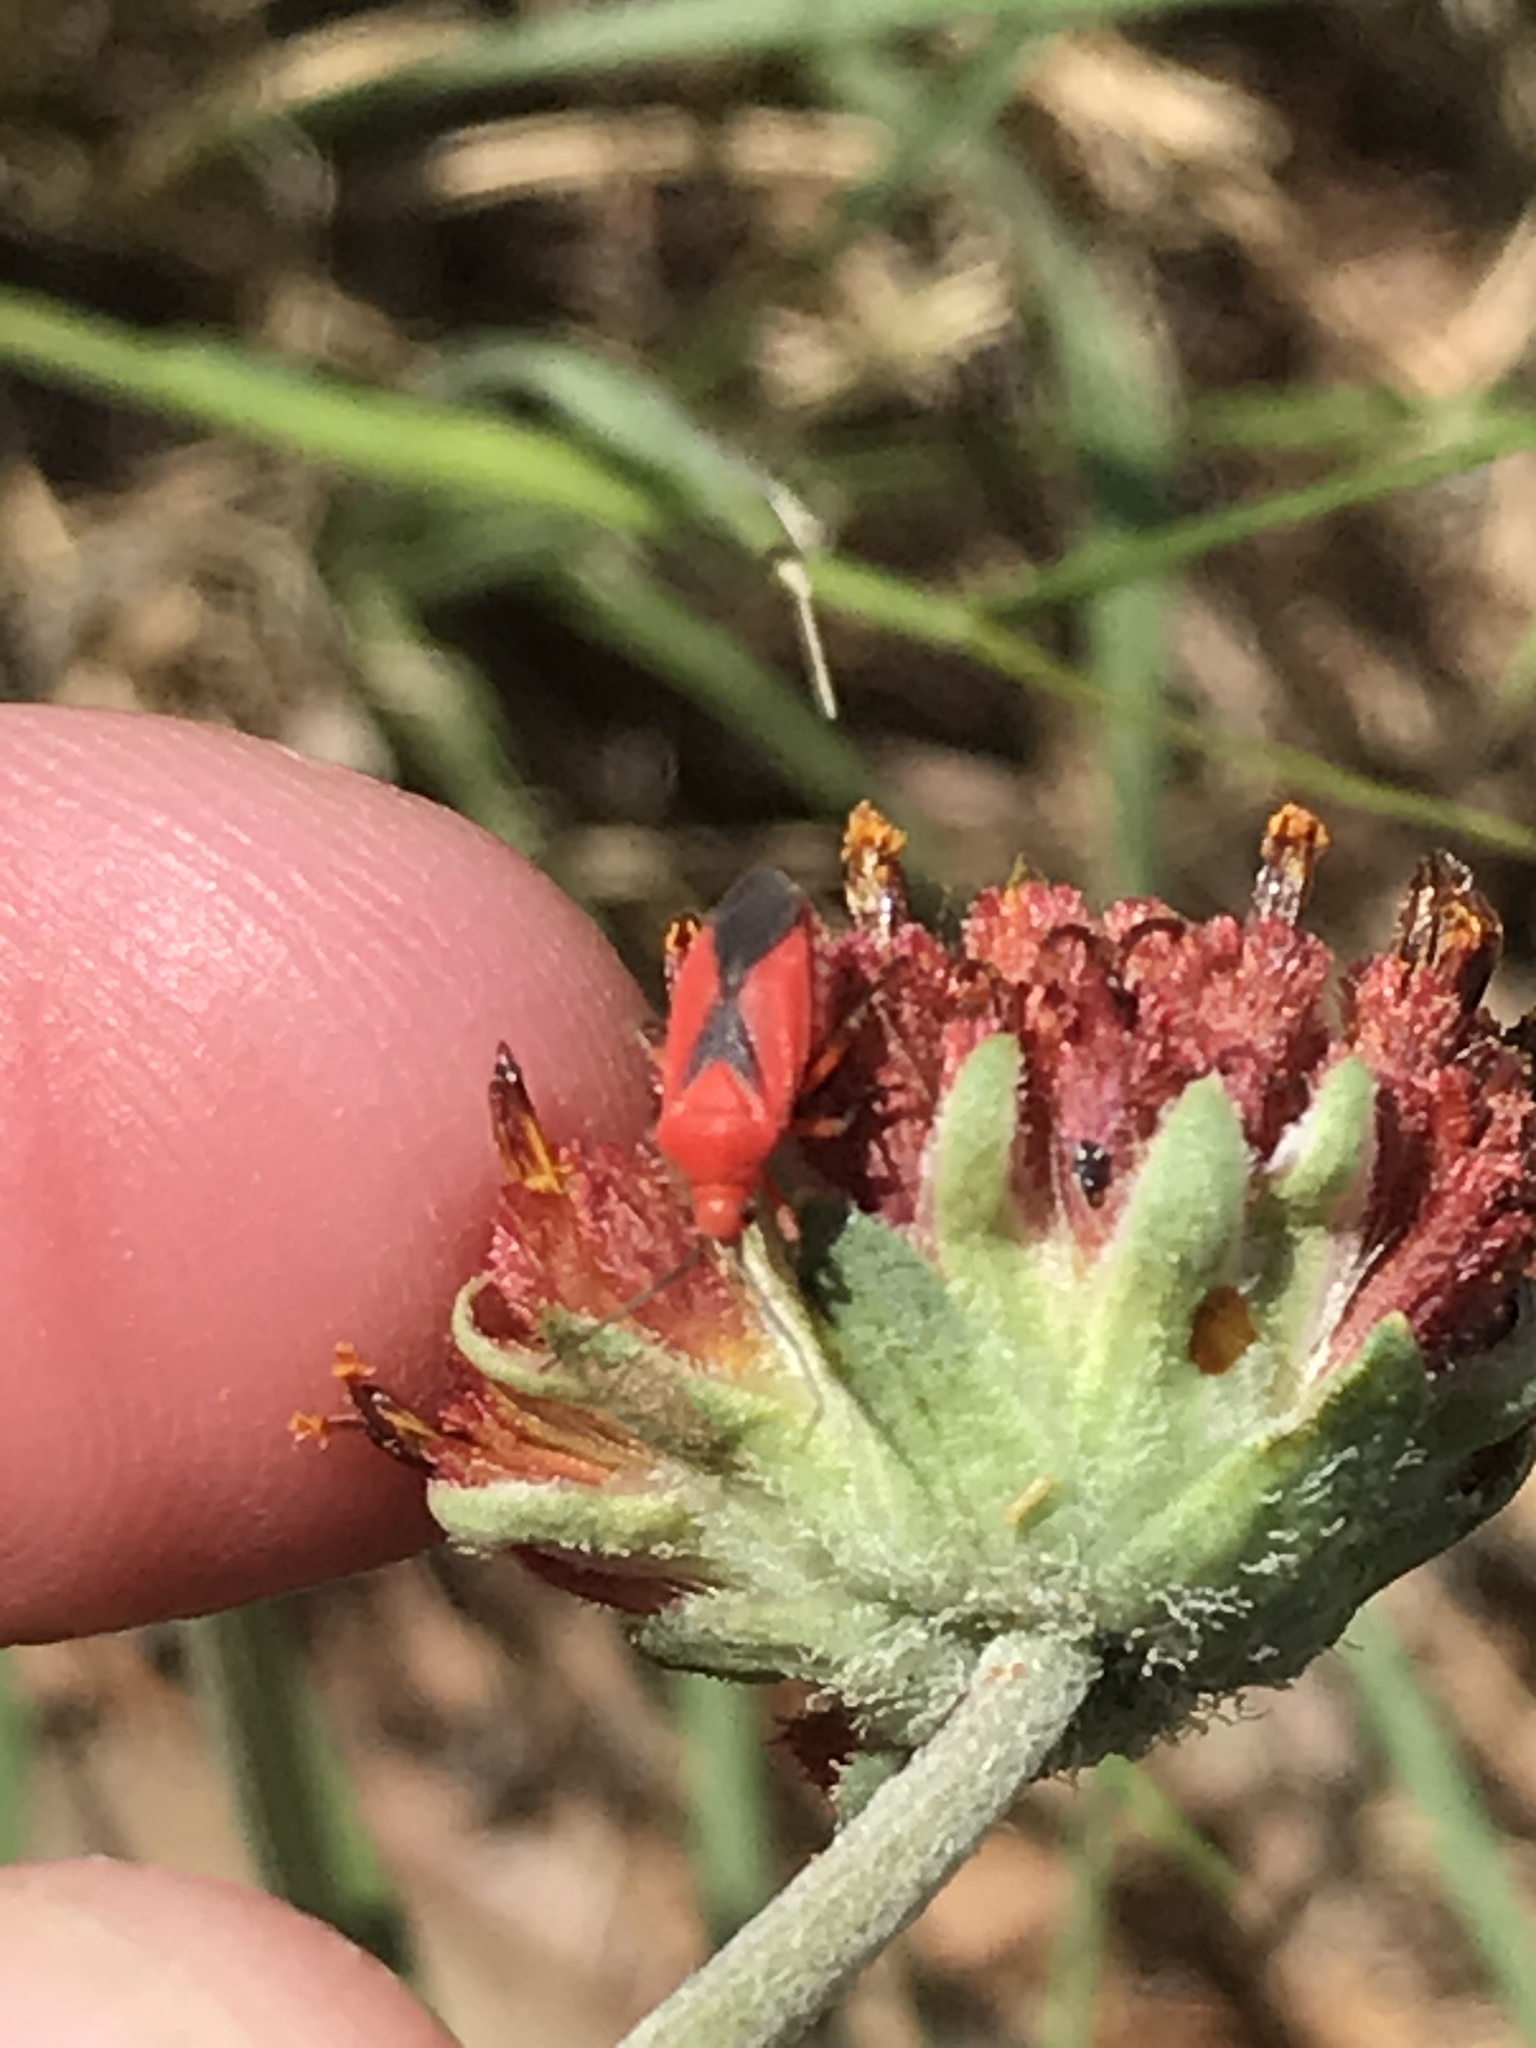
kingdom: Animalia
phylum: Arthropoda
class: Insecta
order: Hemiptera
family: Miridae
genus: Oncerometopus
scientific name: Oncerometopus nigriclavus
